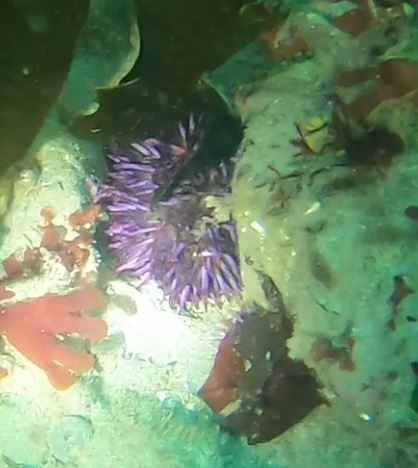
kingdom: Animalia
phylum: Echinodermata
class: Echinoidea
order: Camarodonta
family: Strongylocentrotidae
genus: Strongylocentrotus
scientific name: Strongylocentrotus purpuratus
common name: Purple sea urchin
